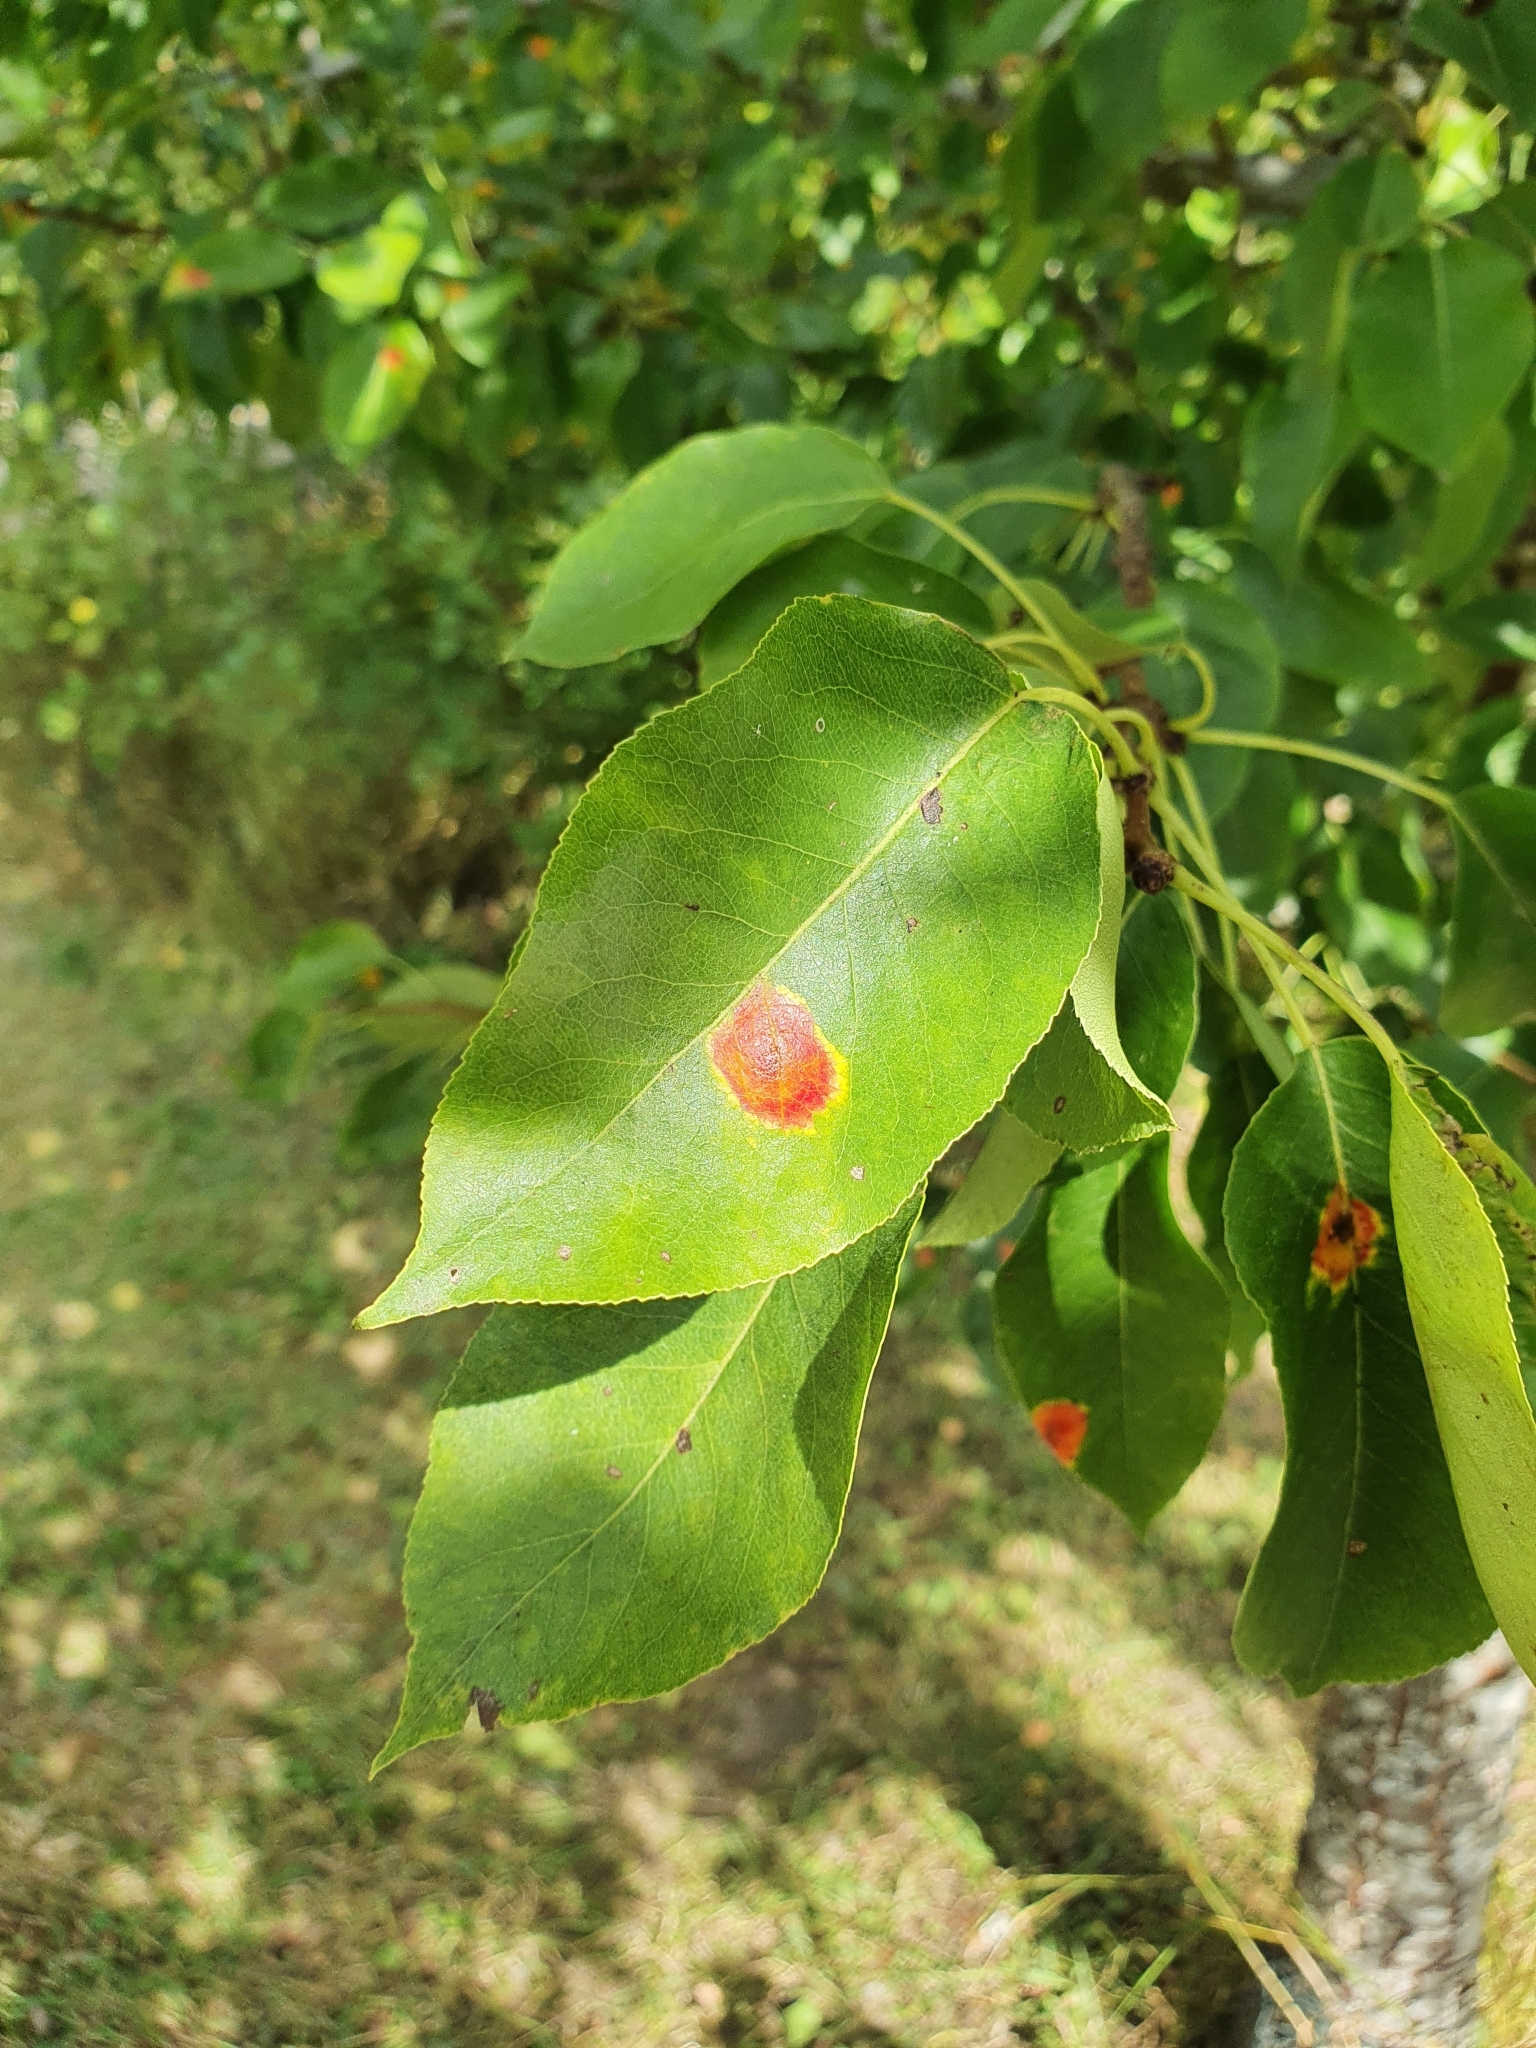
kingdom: Fungi
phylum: Basidiomycota
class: Pucciniomycetes
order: Pucciniales
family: Gymnosporangiaceae
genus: Gymnosporangium
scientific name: Gymnosporangium sabinae
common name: Pear trellis rust fungus
